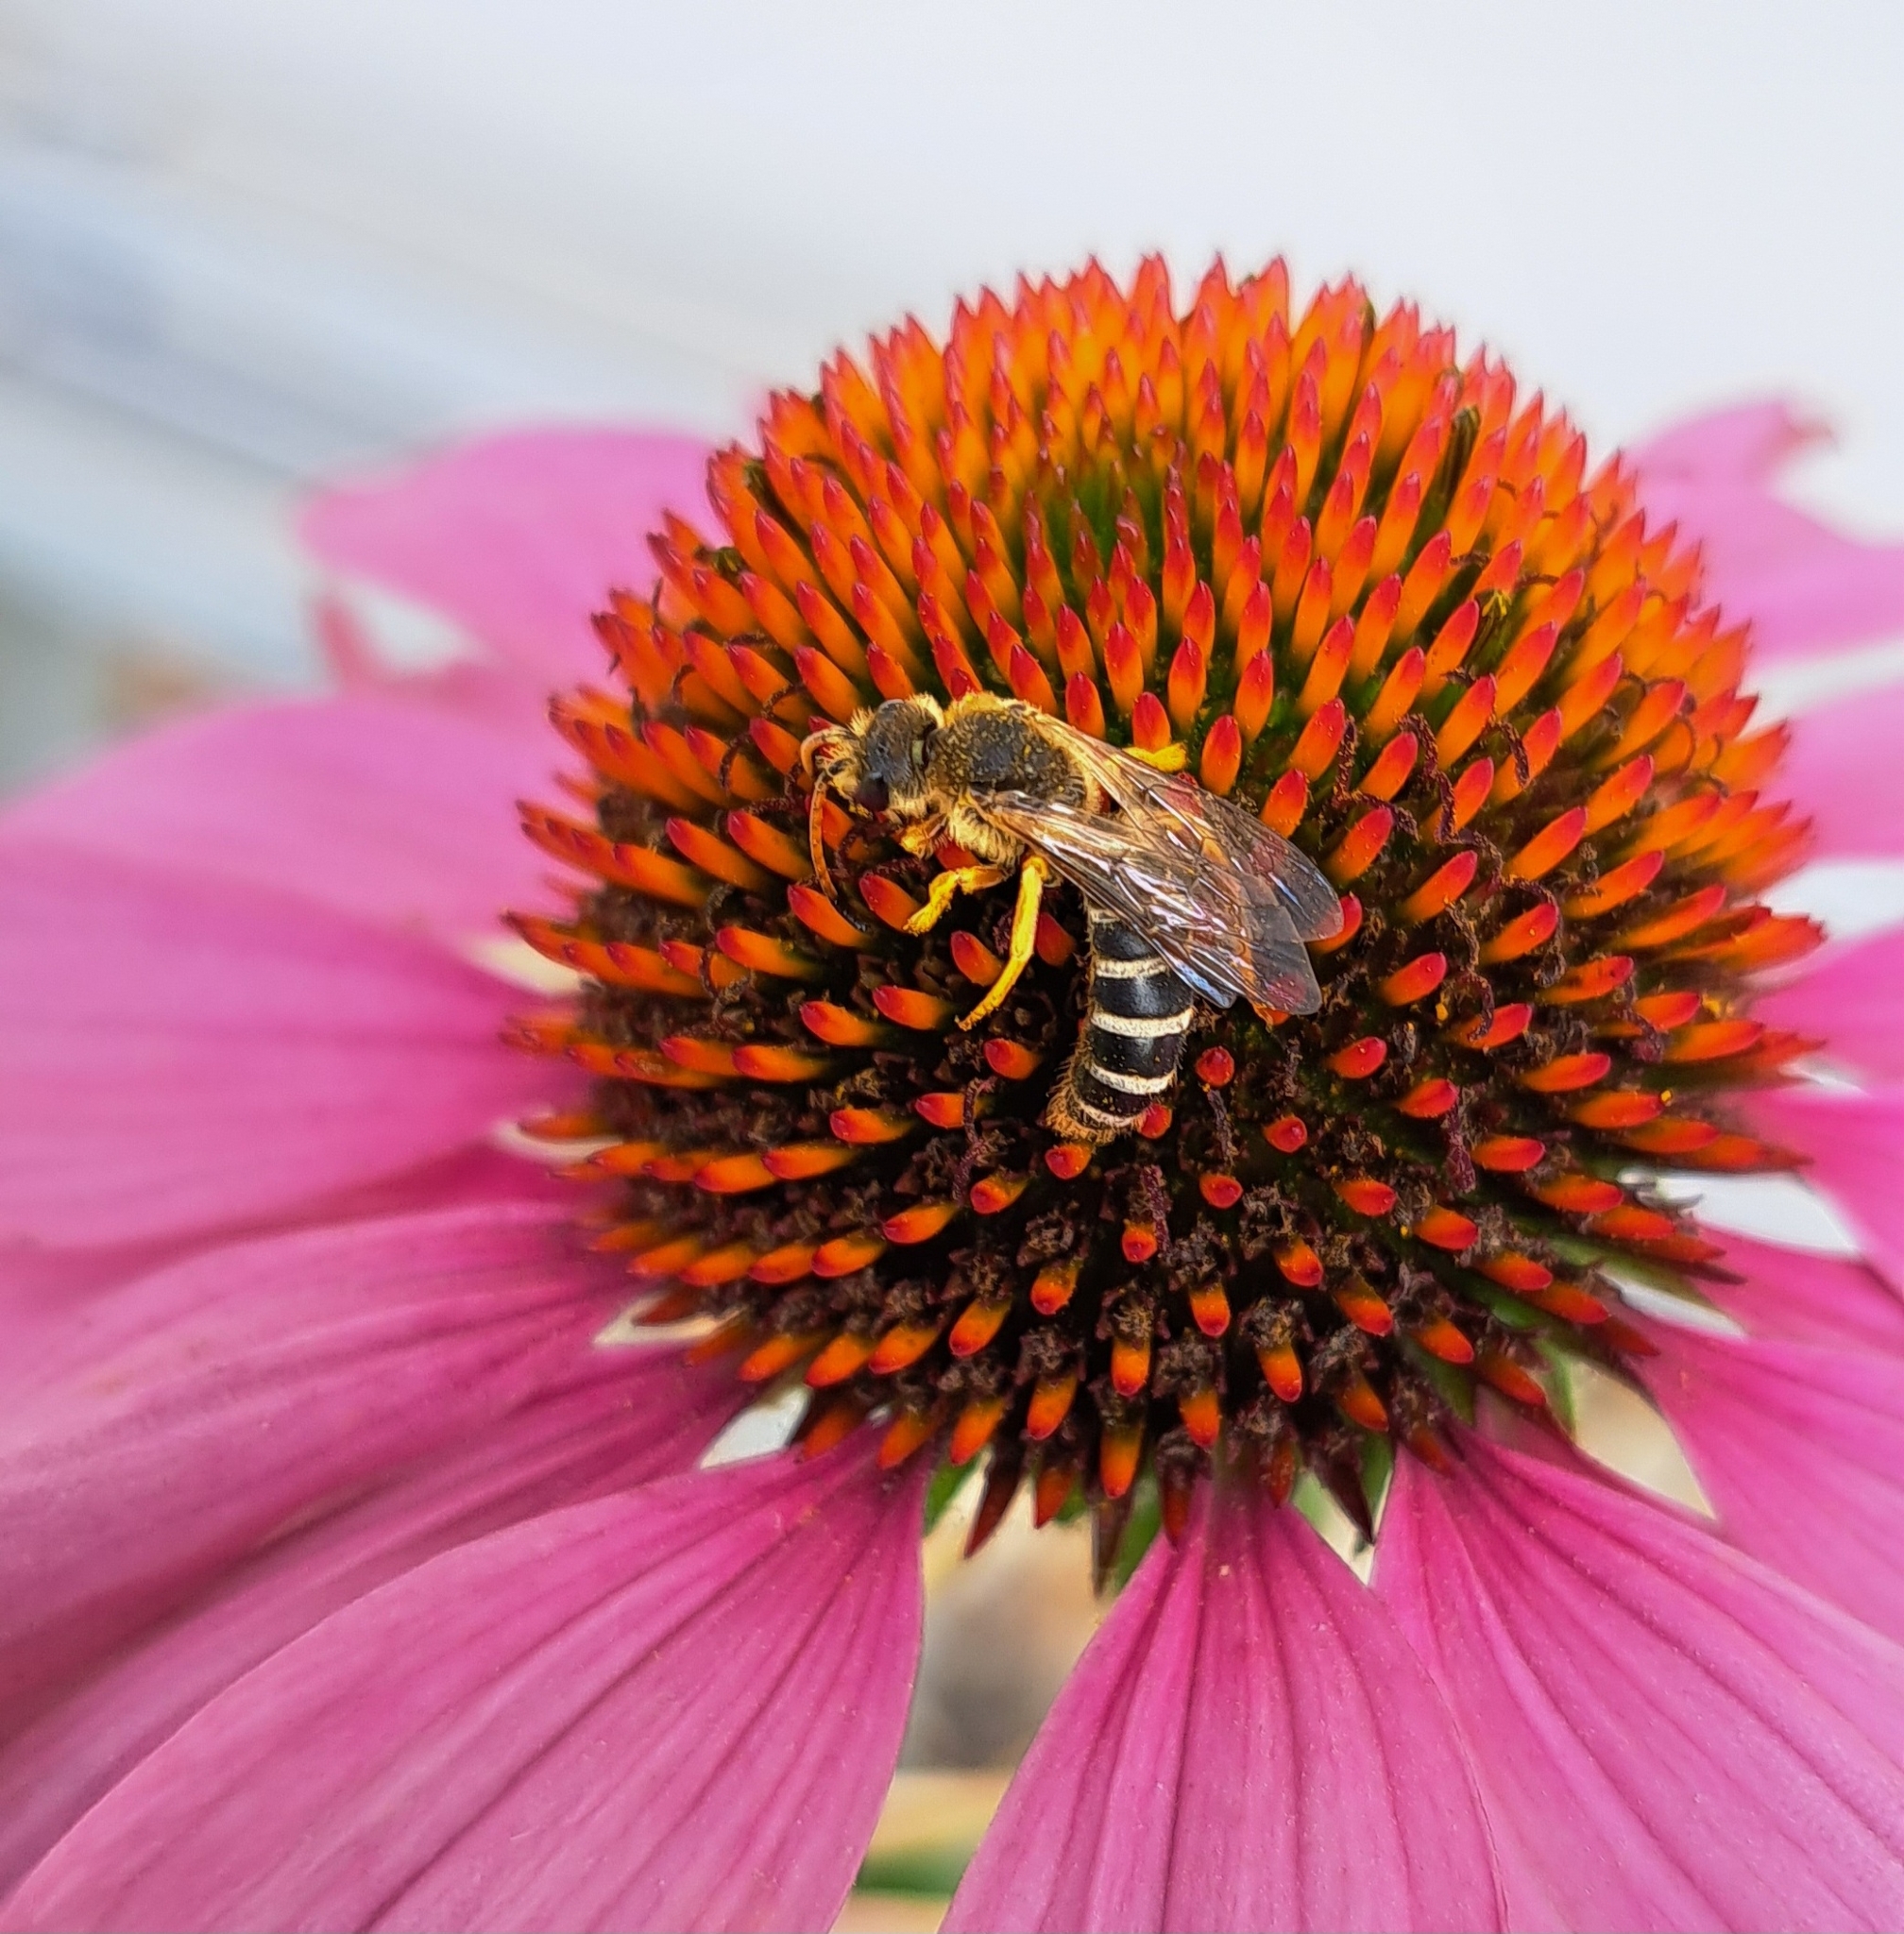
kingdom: Animalia
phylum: Arthropoda
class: Insecta
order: Hymenoptera
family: Halictidae
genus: Halictus
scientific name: Halictus sexcinctus
